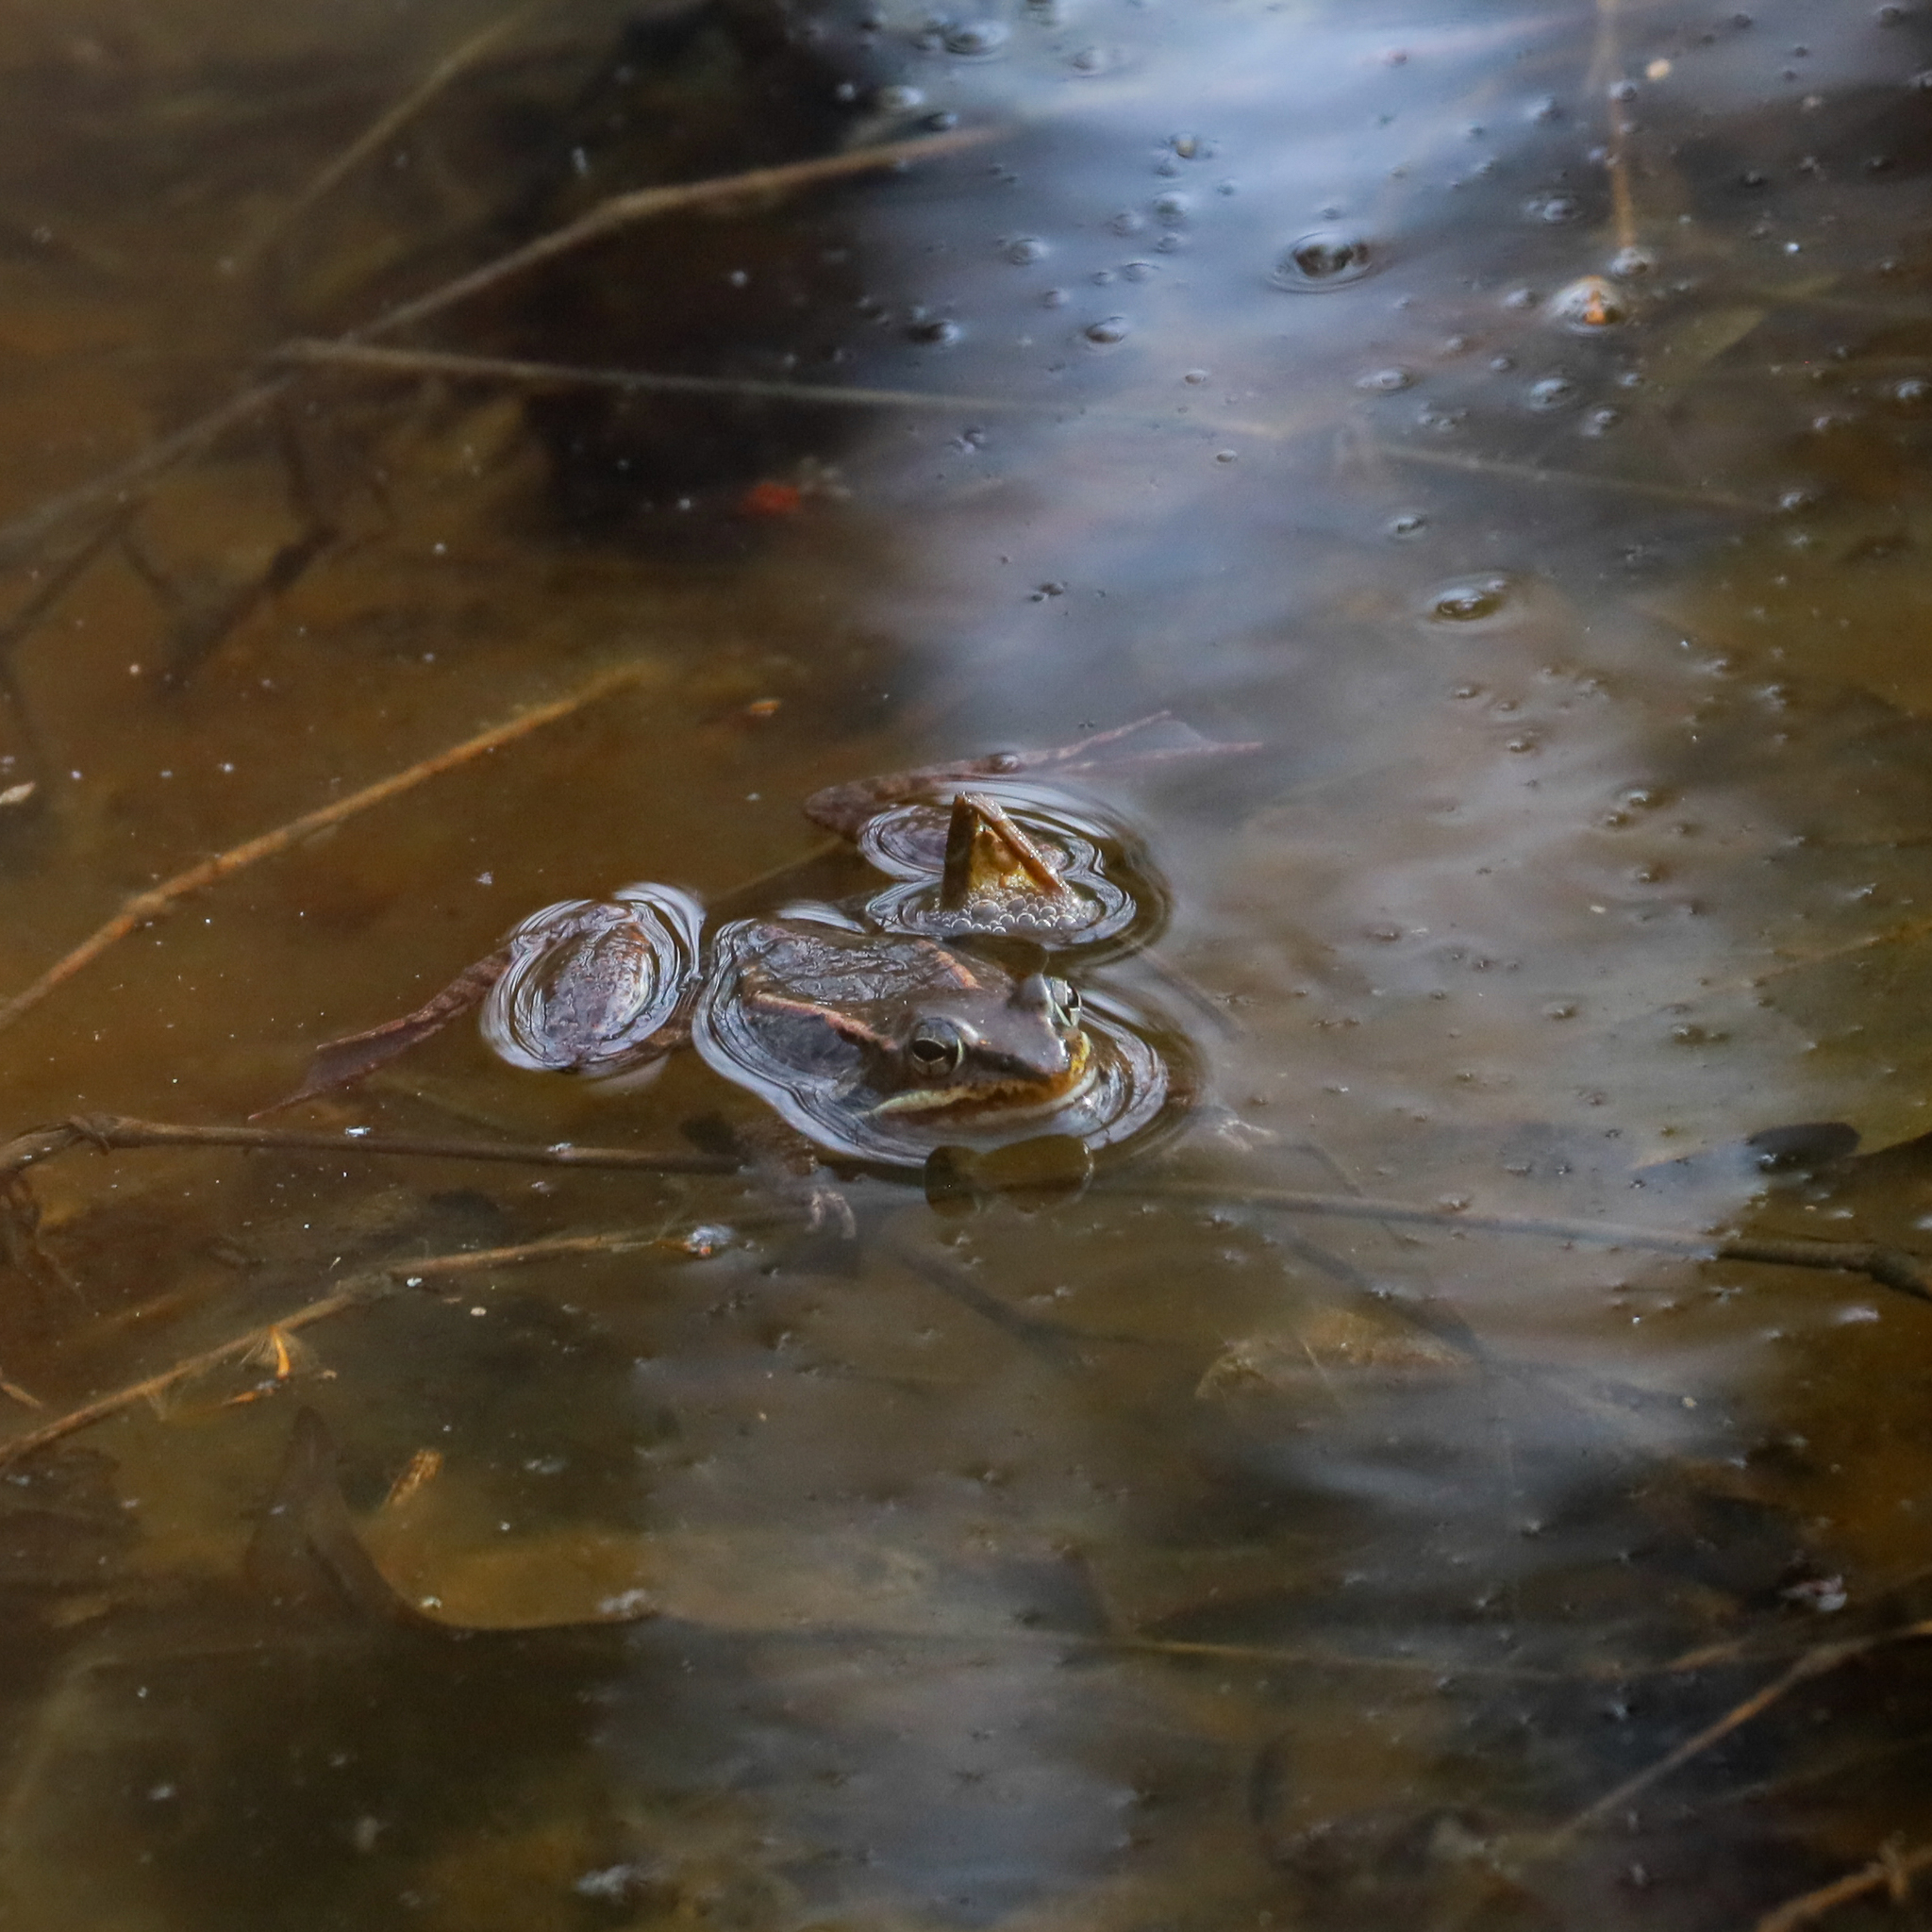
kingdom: Animalia
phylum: Chordata
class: Amphibia
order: Anura
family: Ranidae
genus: Lithobates
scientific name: Lithobates sylvaticus
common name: Wood frog
